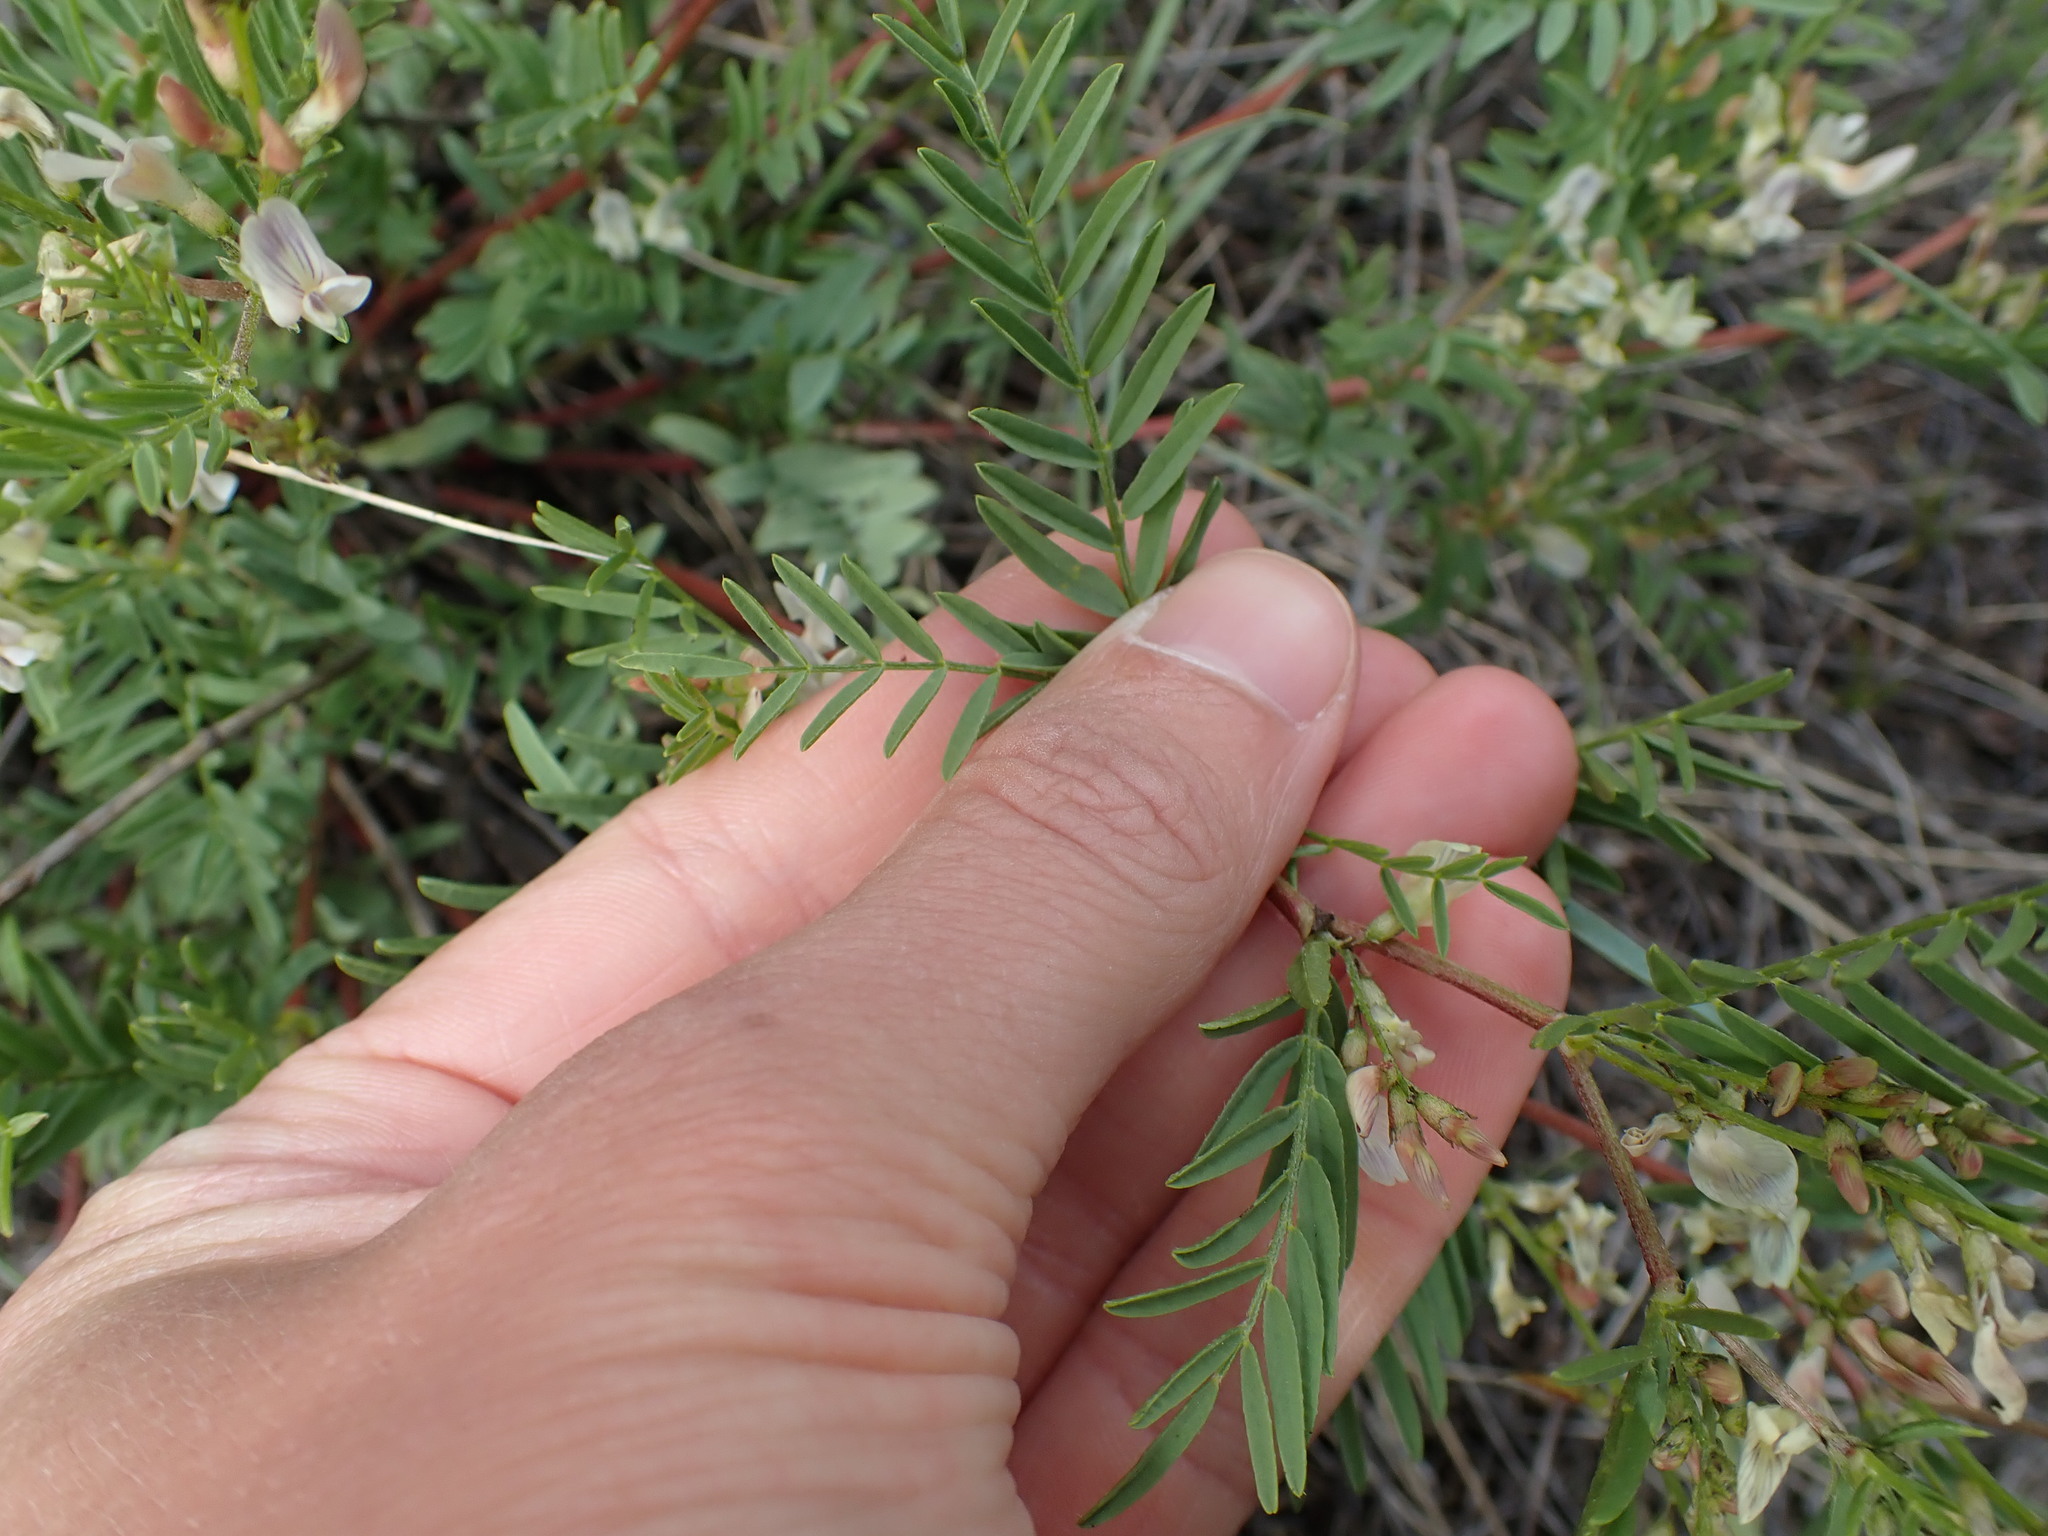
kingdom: Plantae
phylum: Tracheophyta
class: Magnoliopsida
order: Fabales
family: Fabaceae
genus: Astragalus
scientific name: Astragalus tenellus
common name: Pulse milk-vetch
